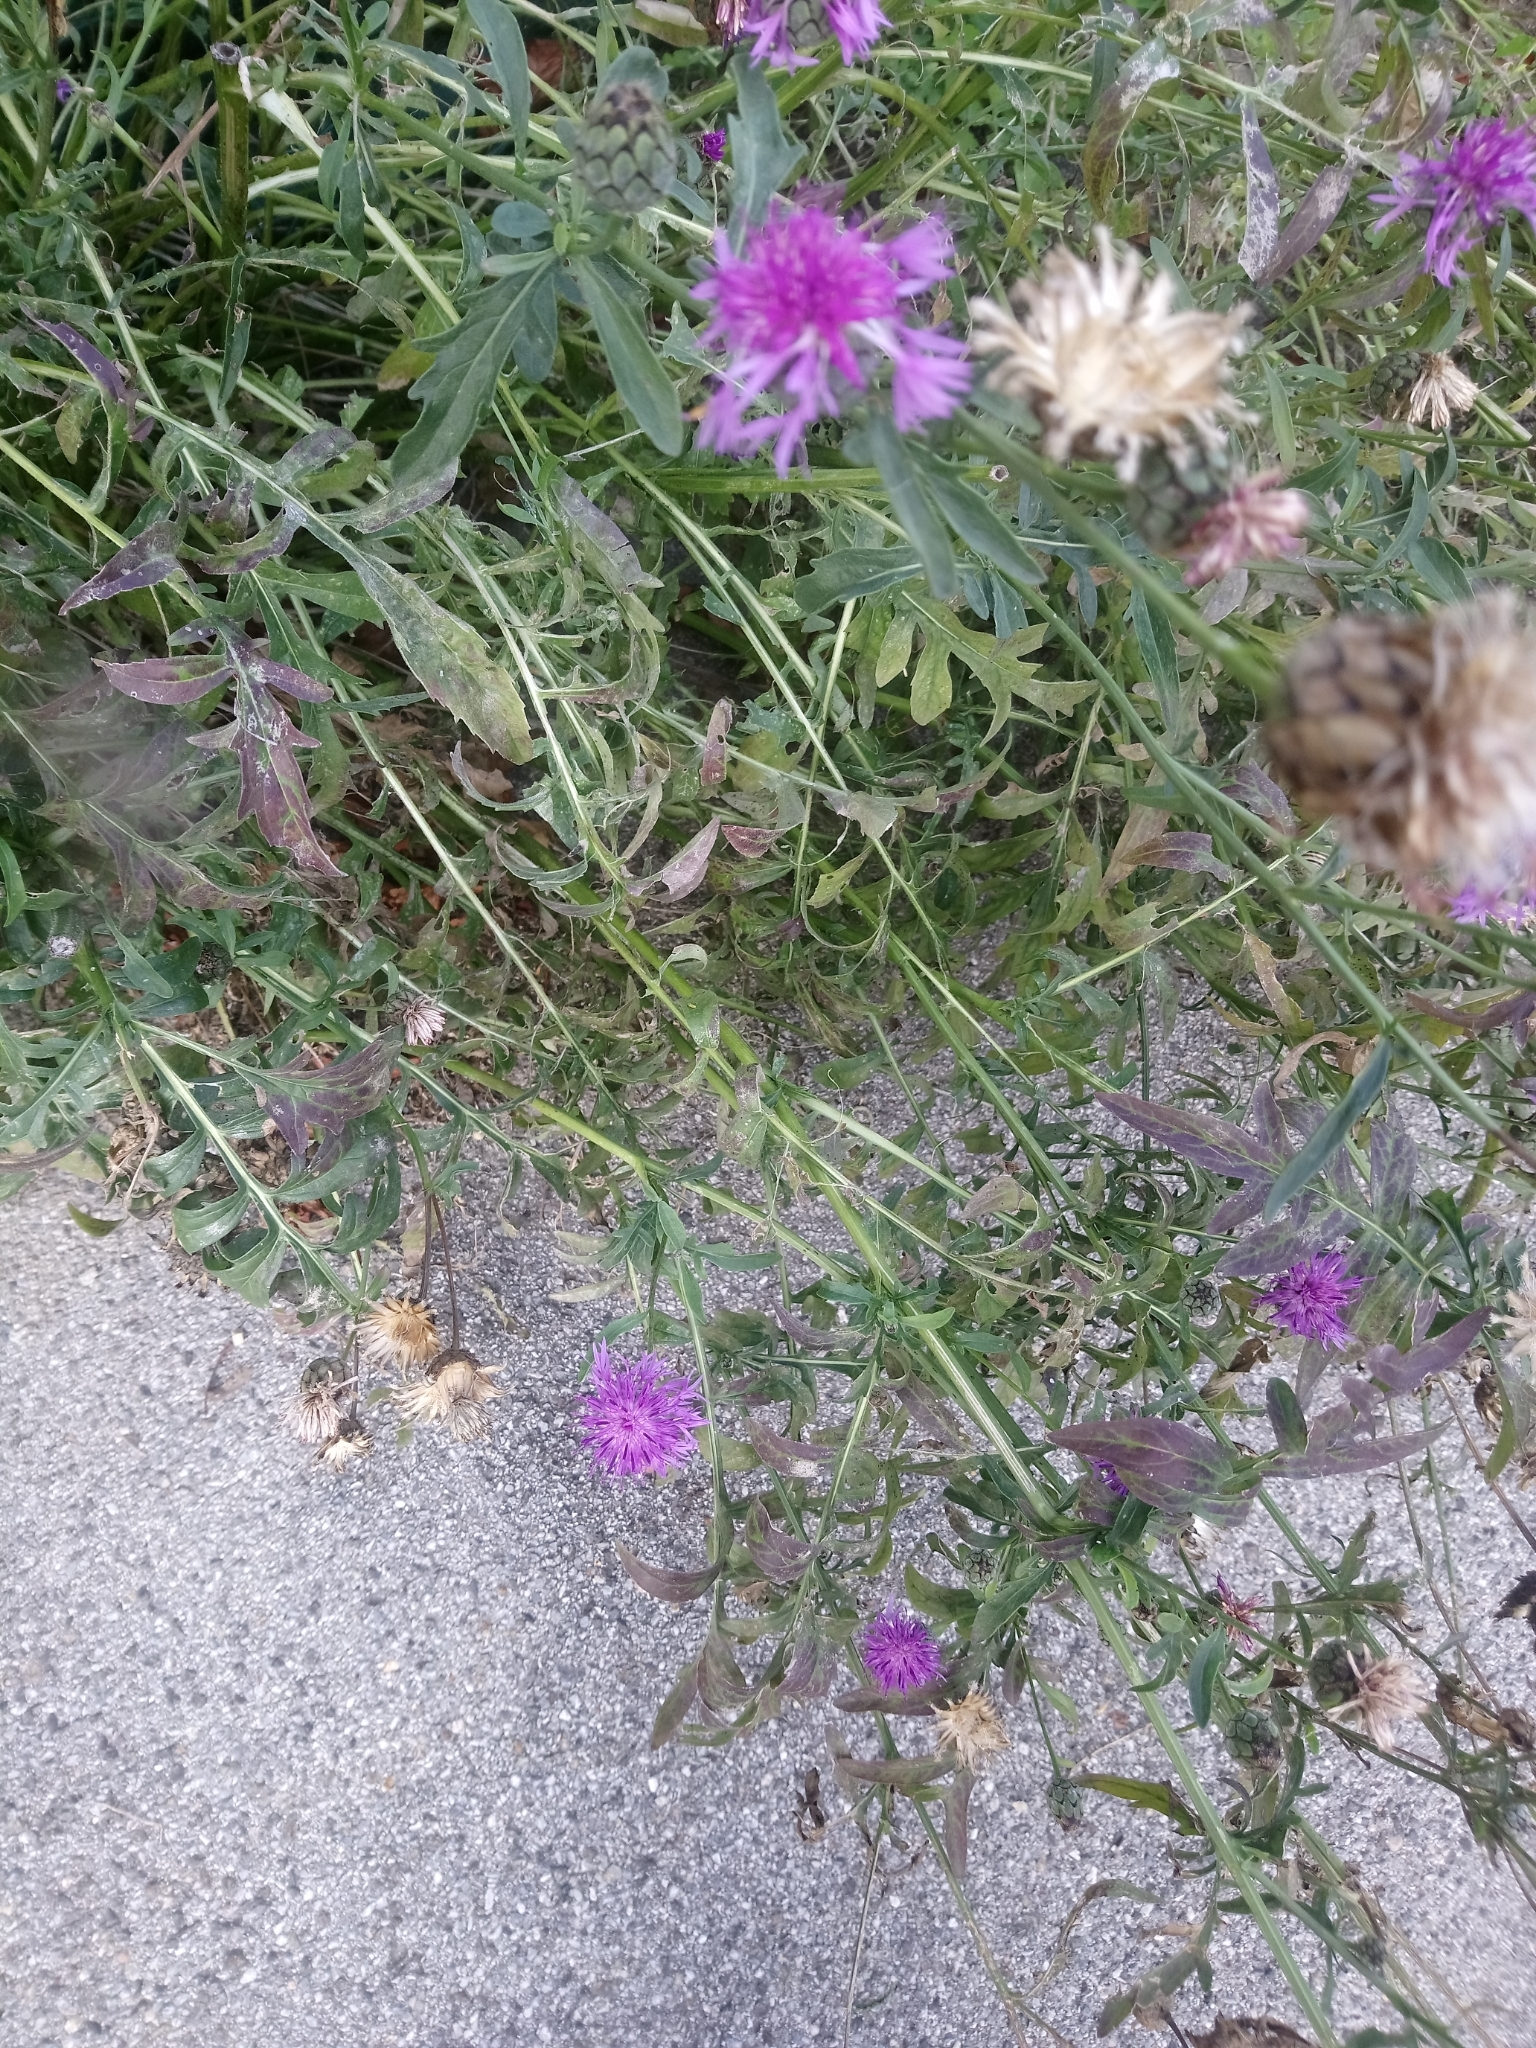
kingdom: Plantae
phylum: Tracheophyta
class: Magnoliopsida
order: Asterales
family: Asteraceae
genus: Centaurea
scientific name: Centaurea scabiosa
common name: Greater knapweed
